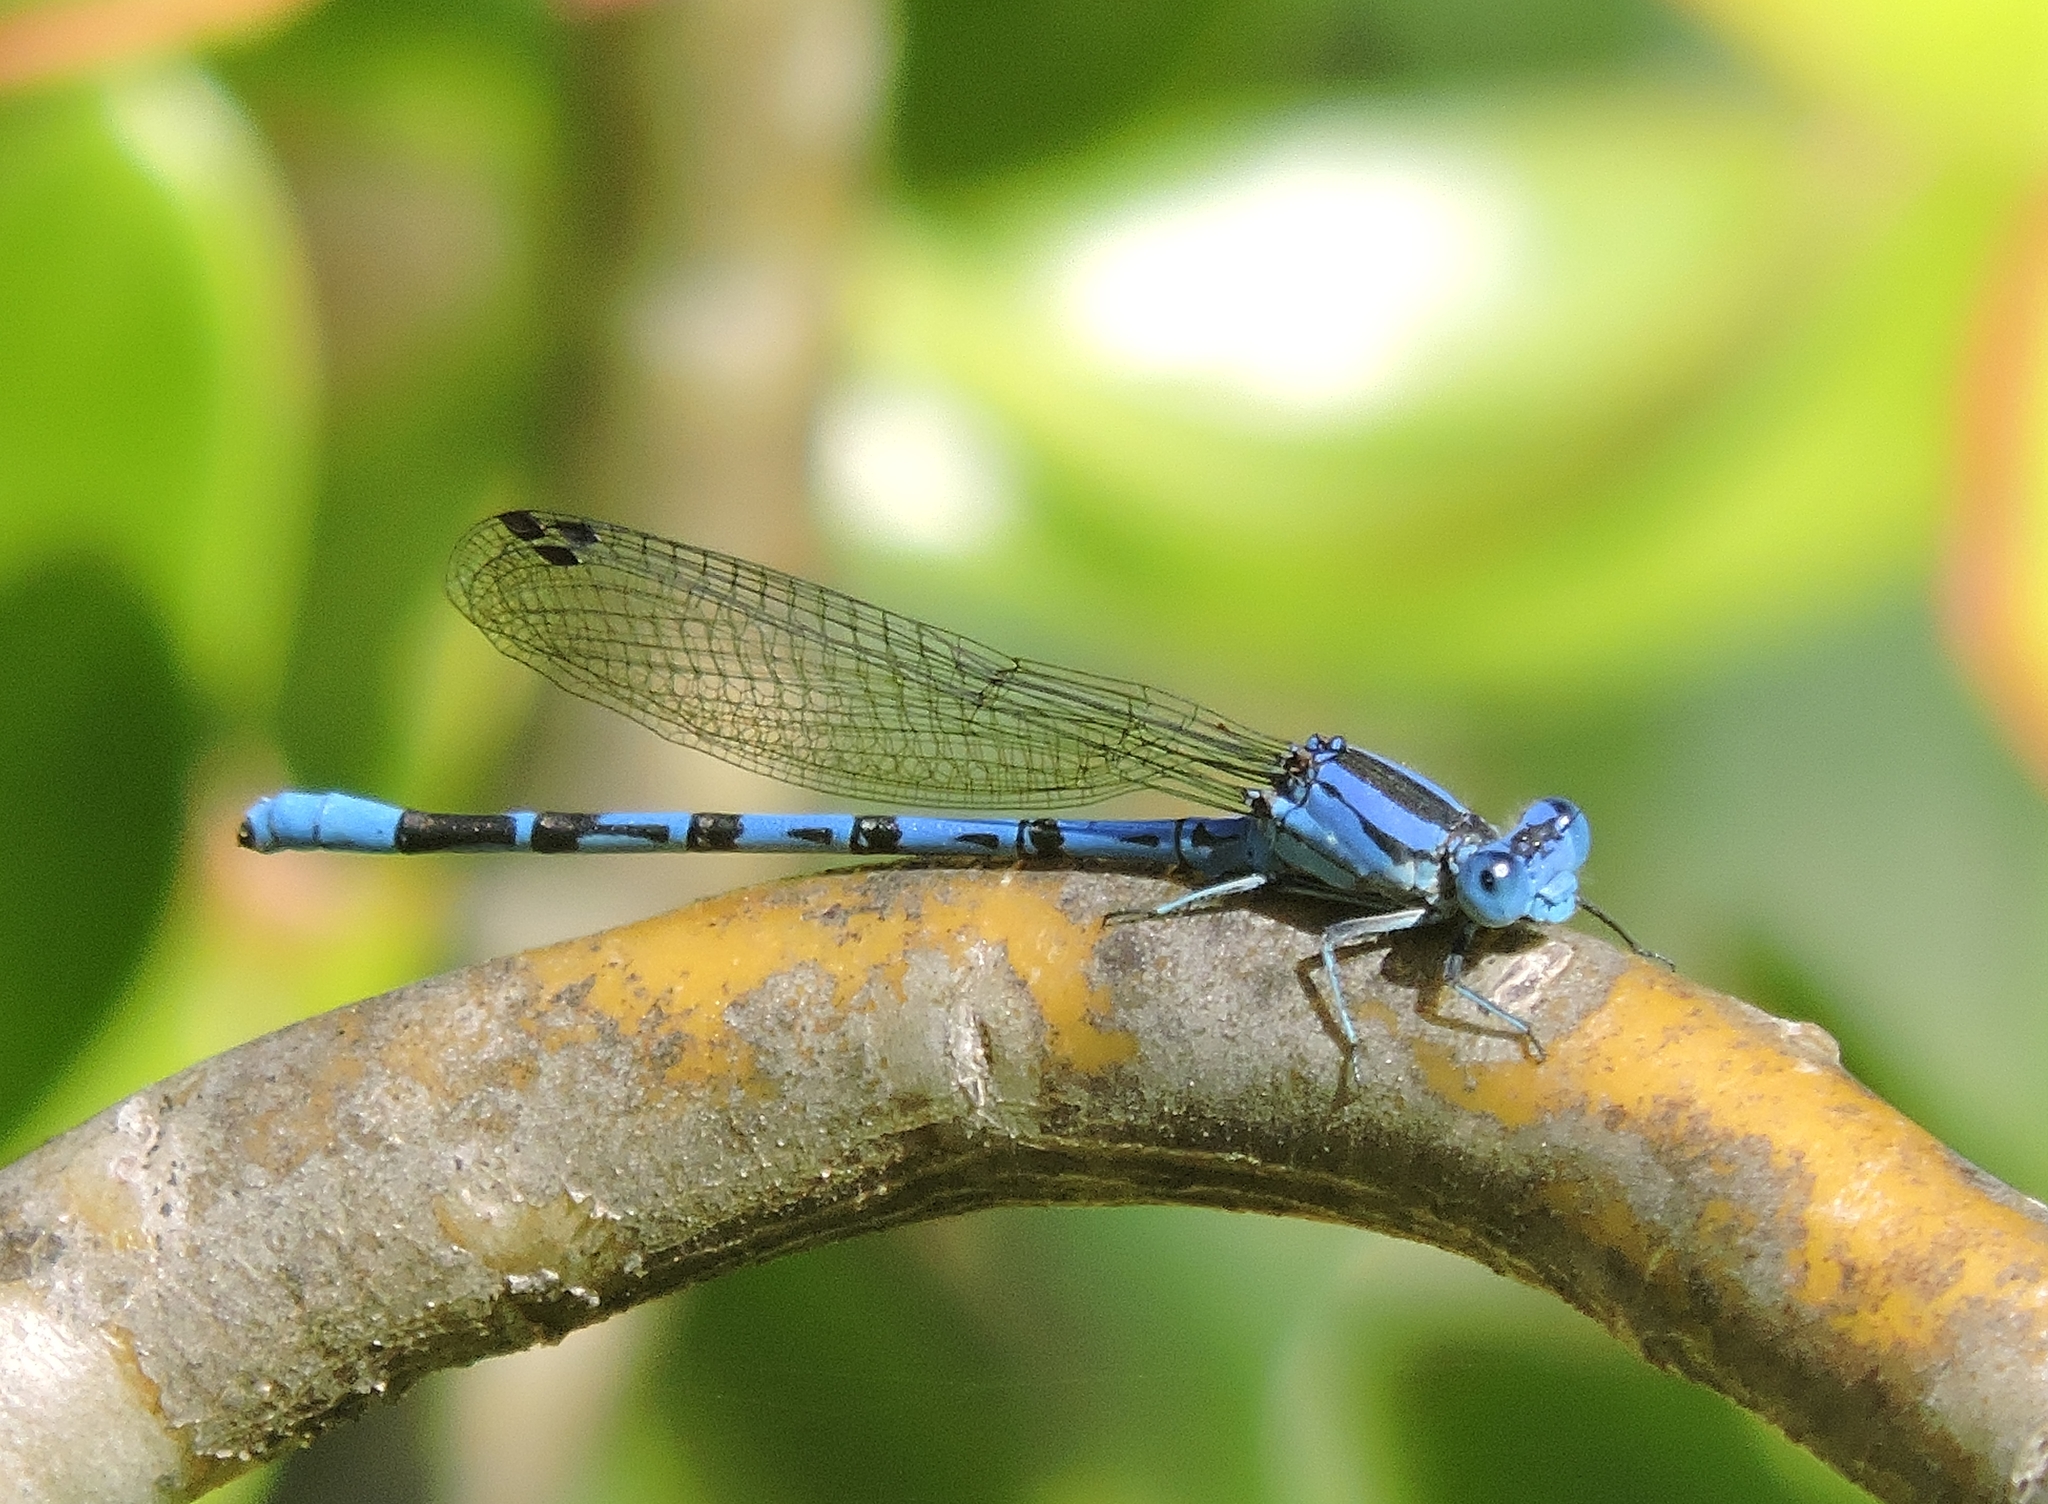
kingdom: Animalia
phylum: Arthropoda
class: Insecta
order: Odonata
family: Coenagrionidae
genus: Argia
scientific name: Argia vivida
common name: Vivid dancer
